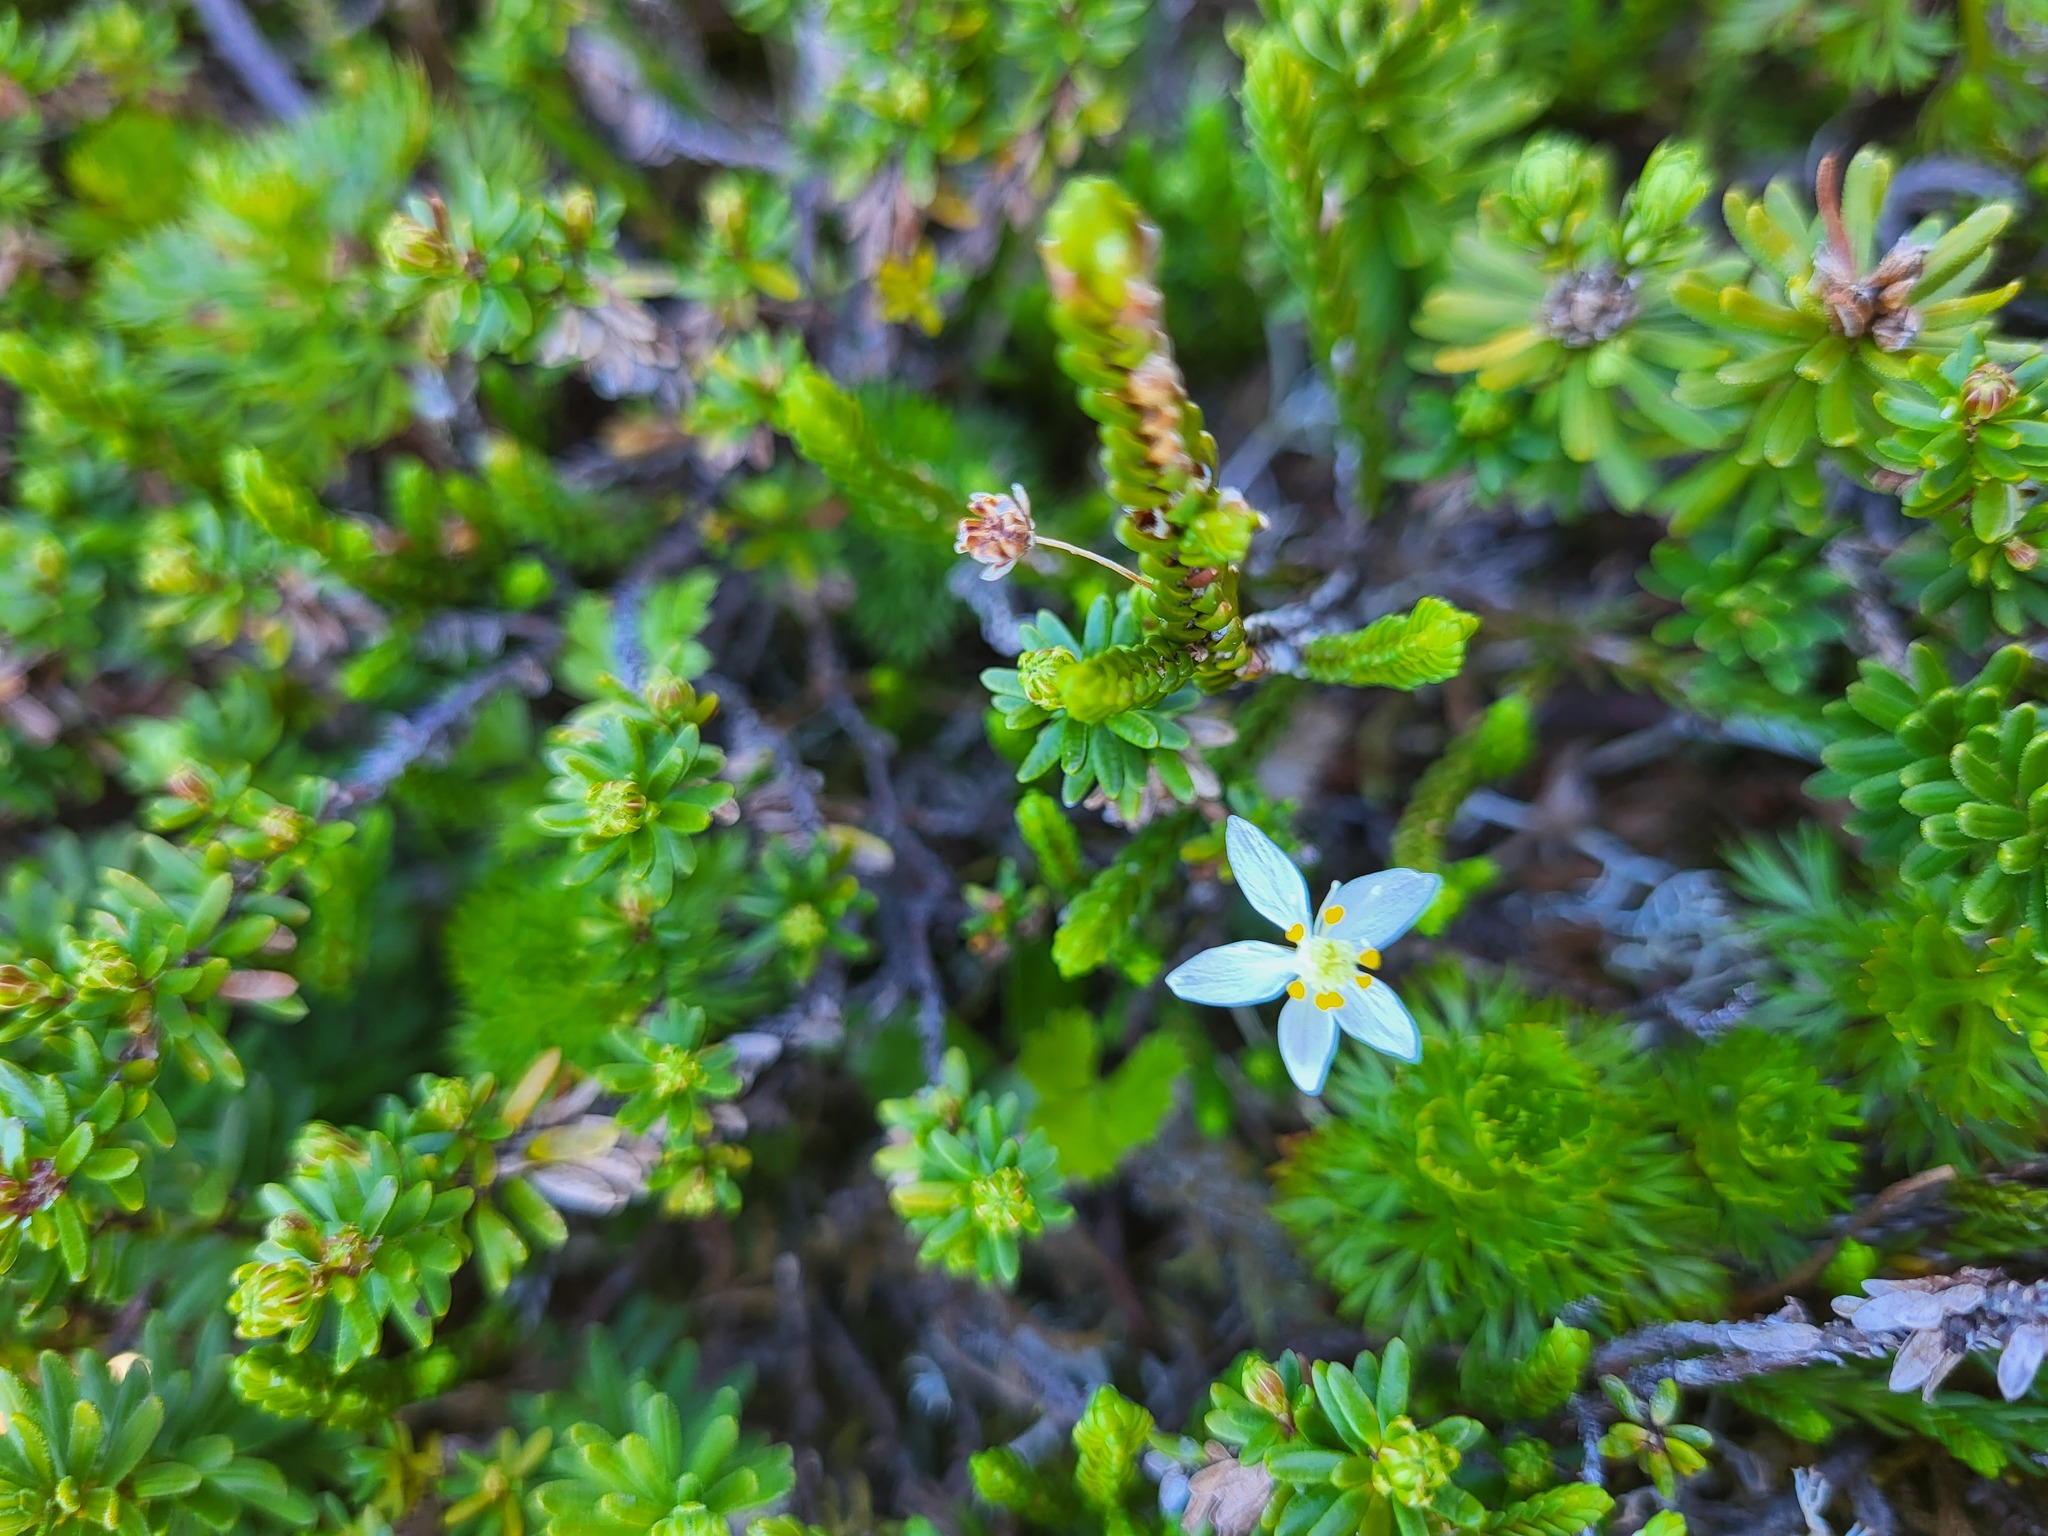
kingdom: Plantae
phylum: Tracheophyta
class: Magnoliopsida
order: Ranunculales
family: Ranunculaceae
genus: Coptis
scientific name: Coptis trifolia
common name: Canker-root
